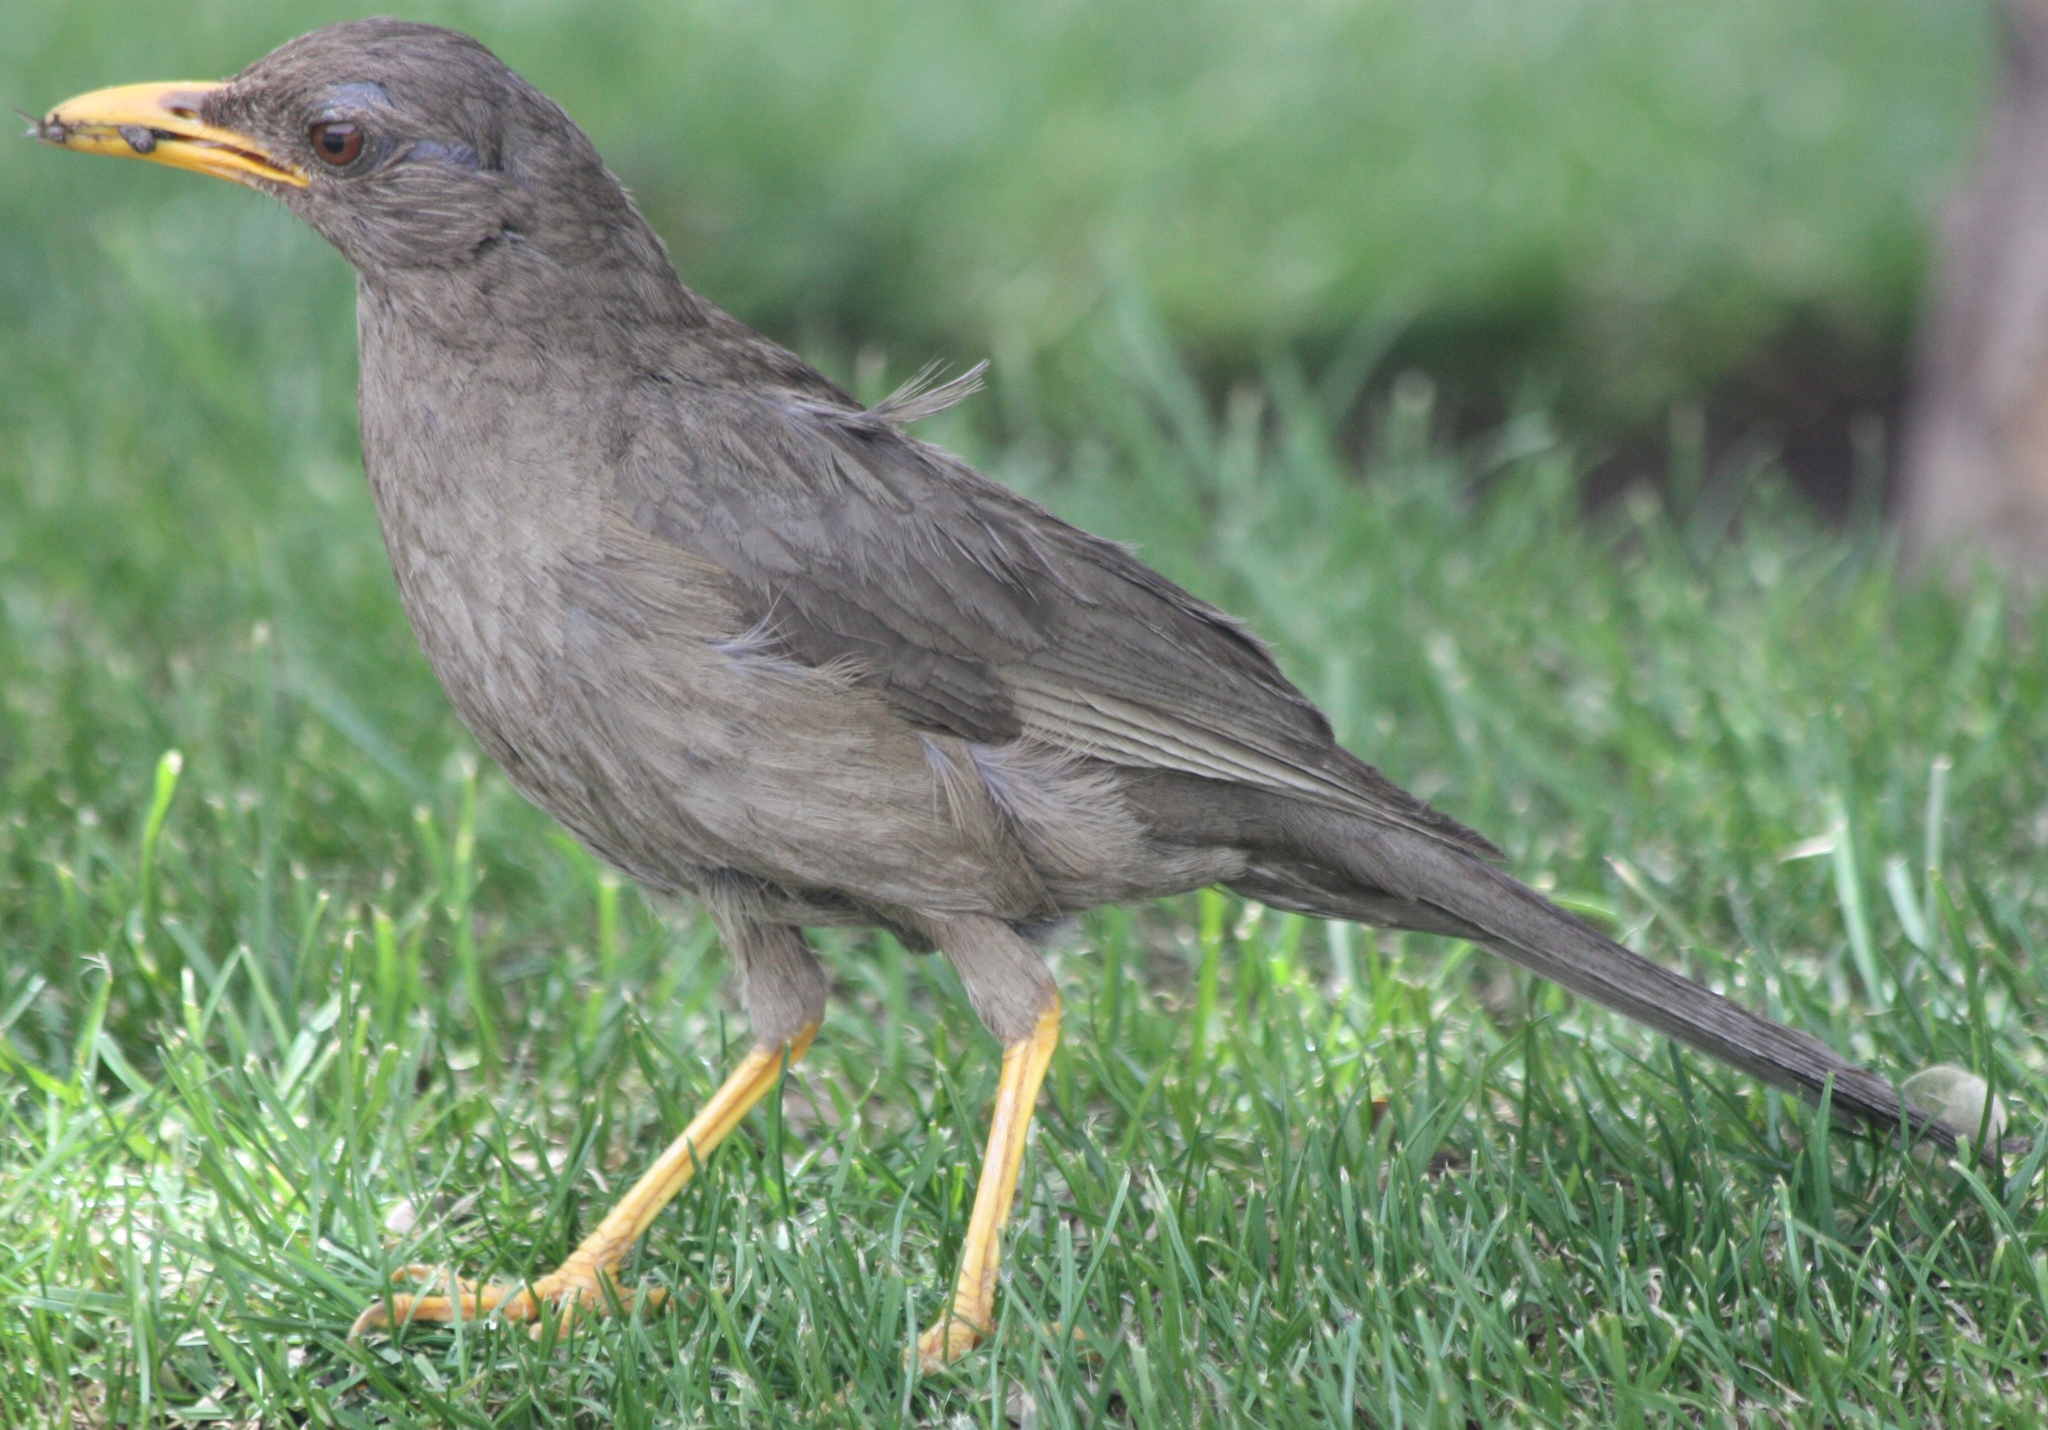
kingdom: Animalia
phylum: Chordata
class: Aves
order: Passeriformes
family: Turdidae
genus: Turdus
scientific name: Turdus chiguanco
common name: Chiguanco thrush
